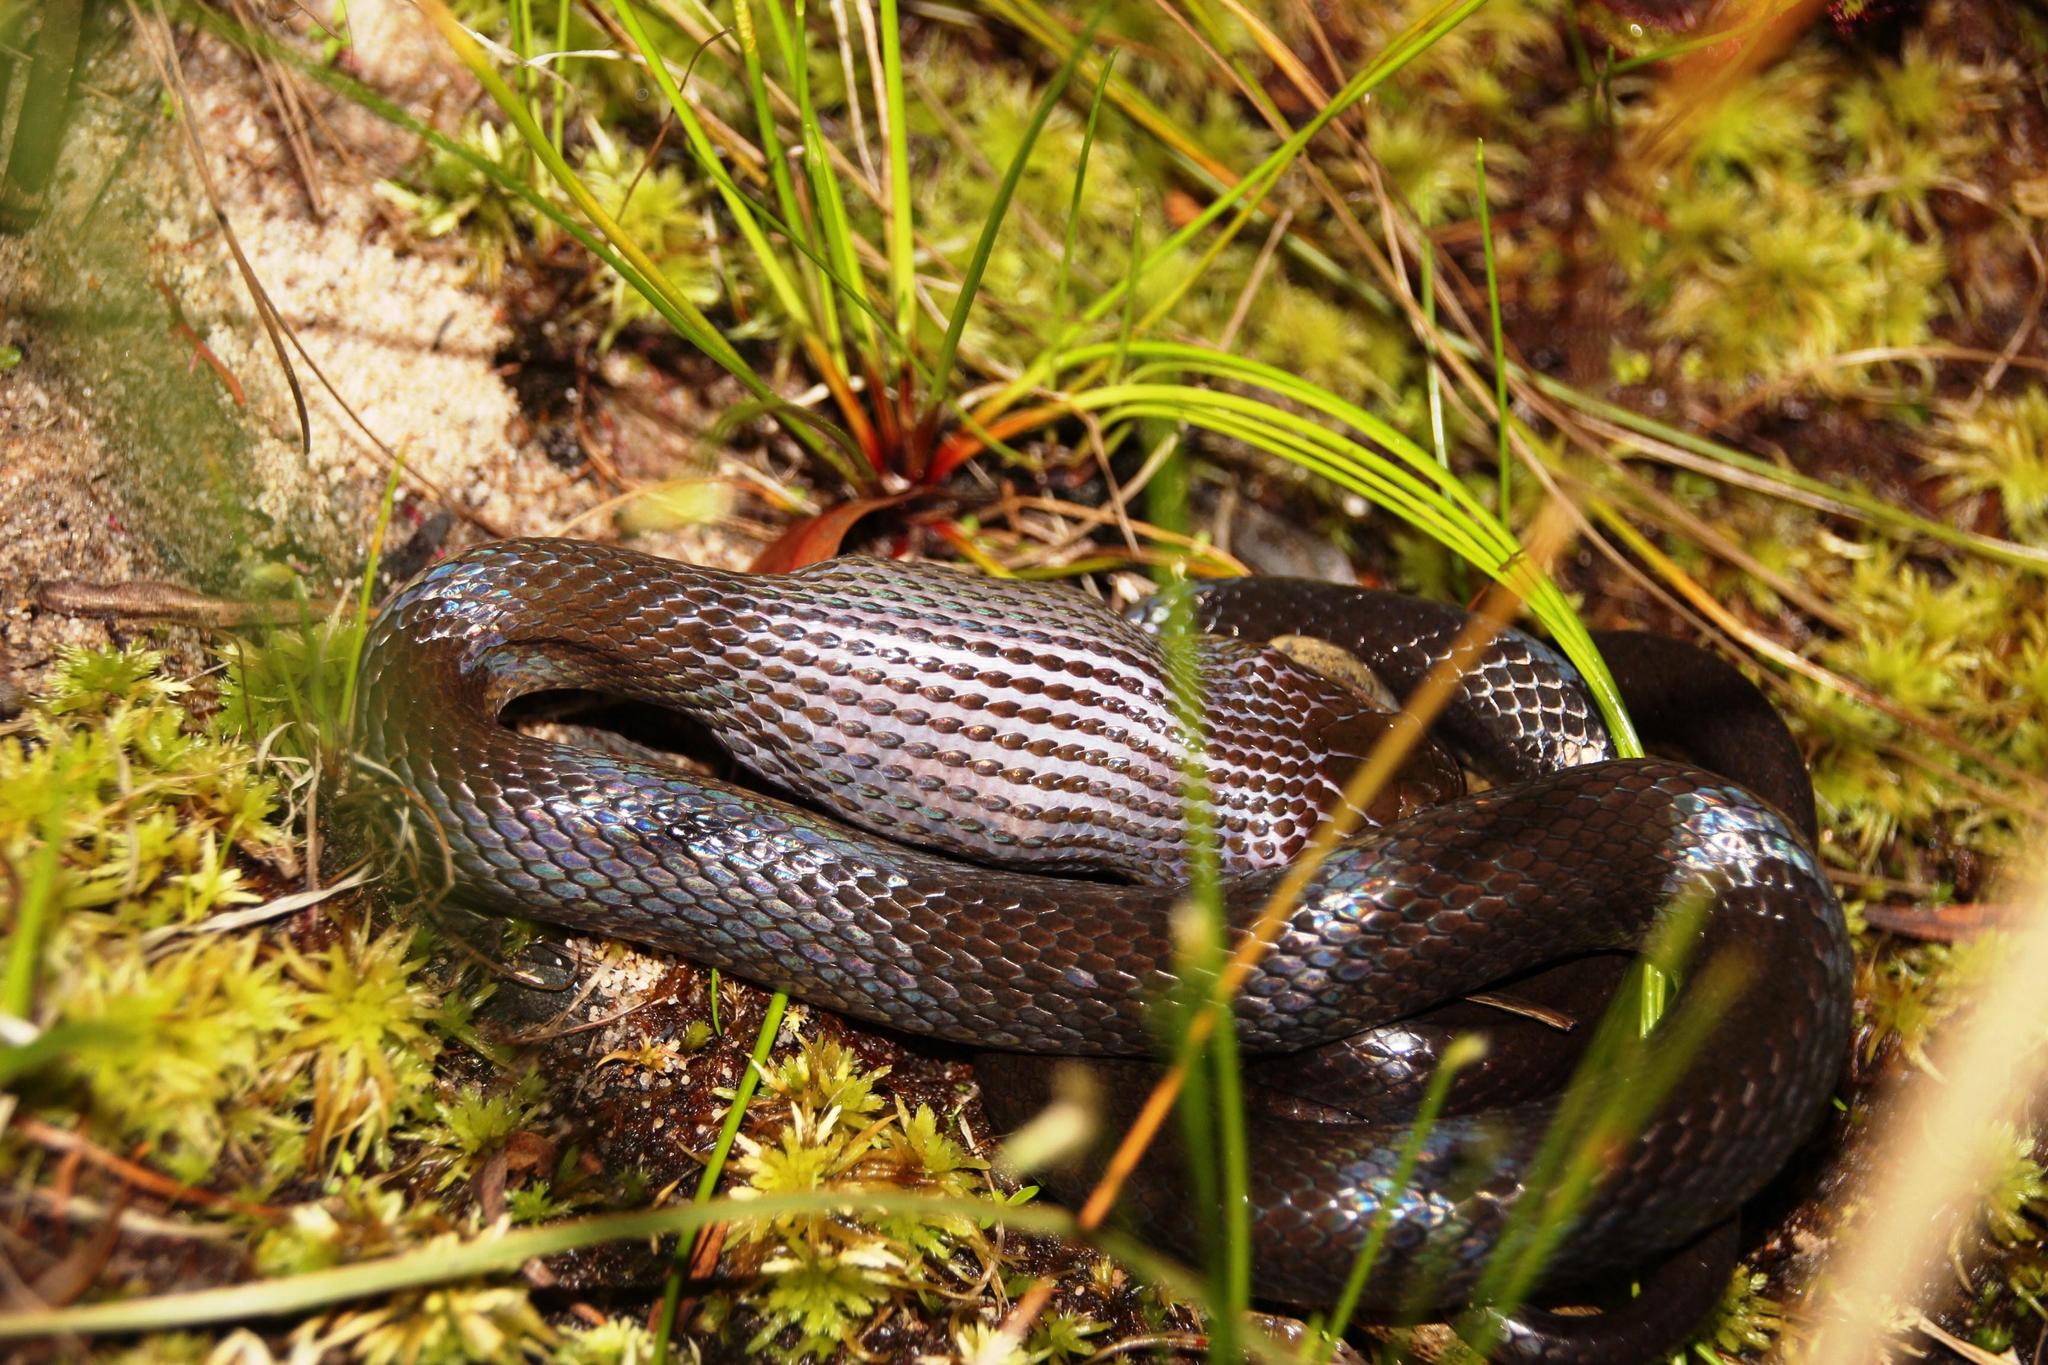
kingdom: Animalia
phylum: Chordata
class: Squamata
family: Lamprophiidae
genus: Lycodonomorphus
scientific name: Lycodonomorphus rufulus
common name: Brown water snake
